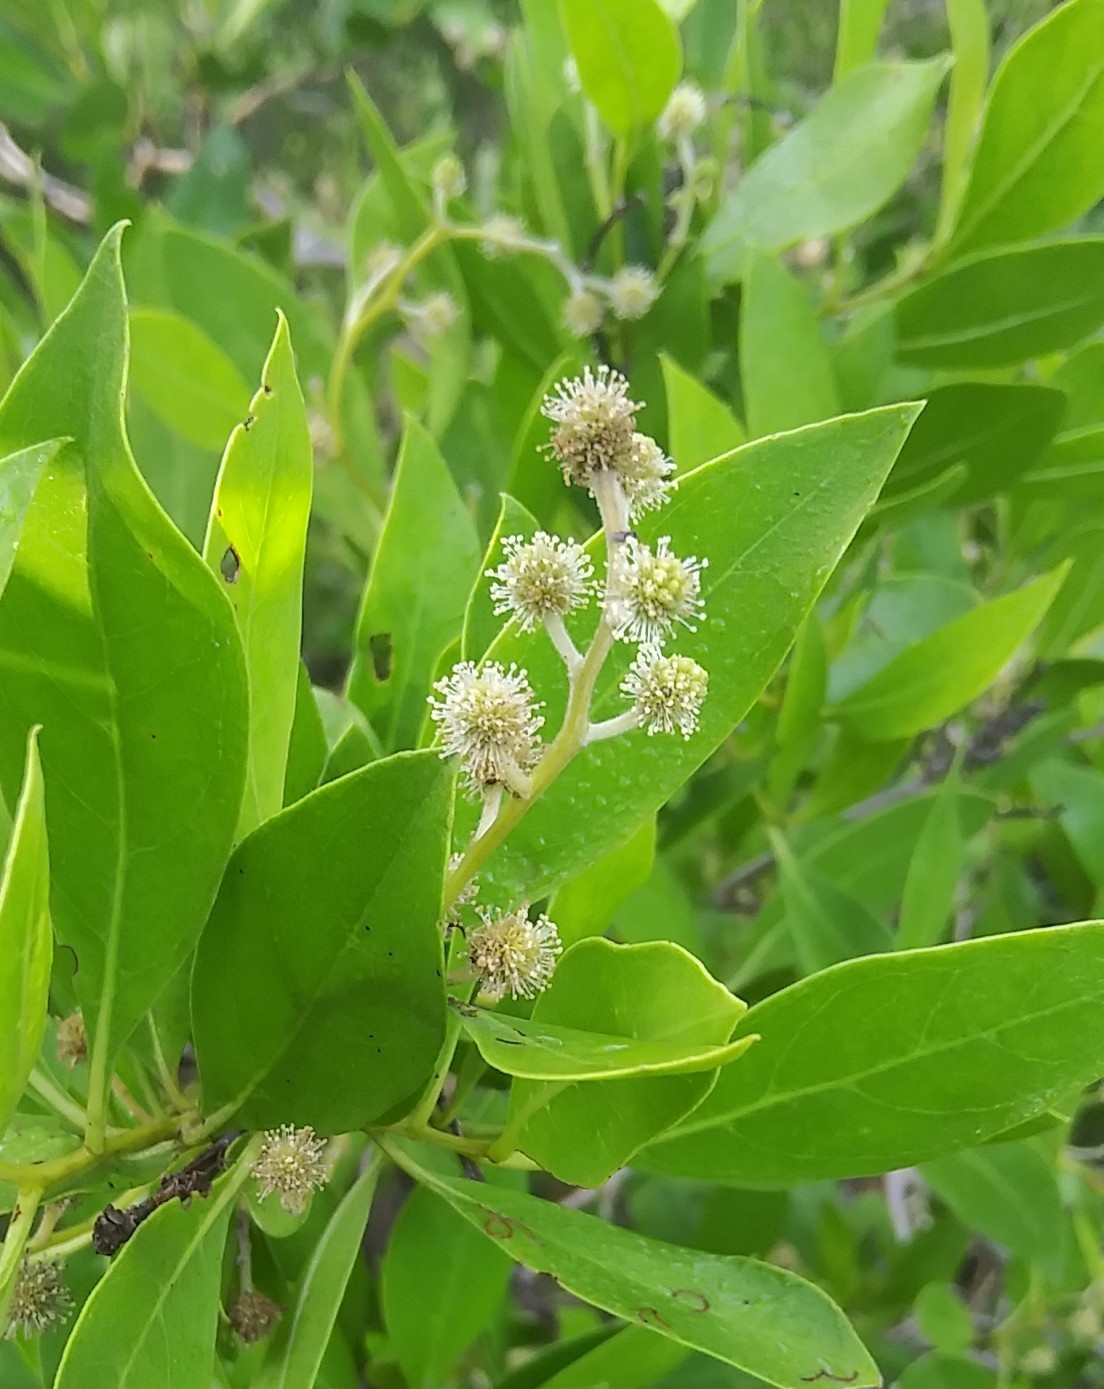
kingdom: Plantae
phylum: Tracheophyta
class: Magnoliopsida
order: Myrtales
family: Combretaceae
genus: Conocarpus
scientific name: Conocarpus erectus
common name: Button mangrove
